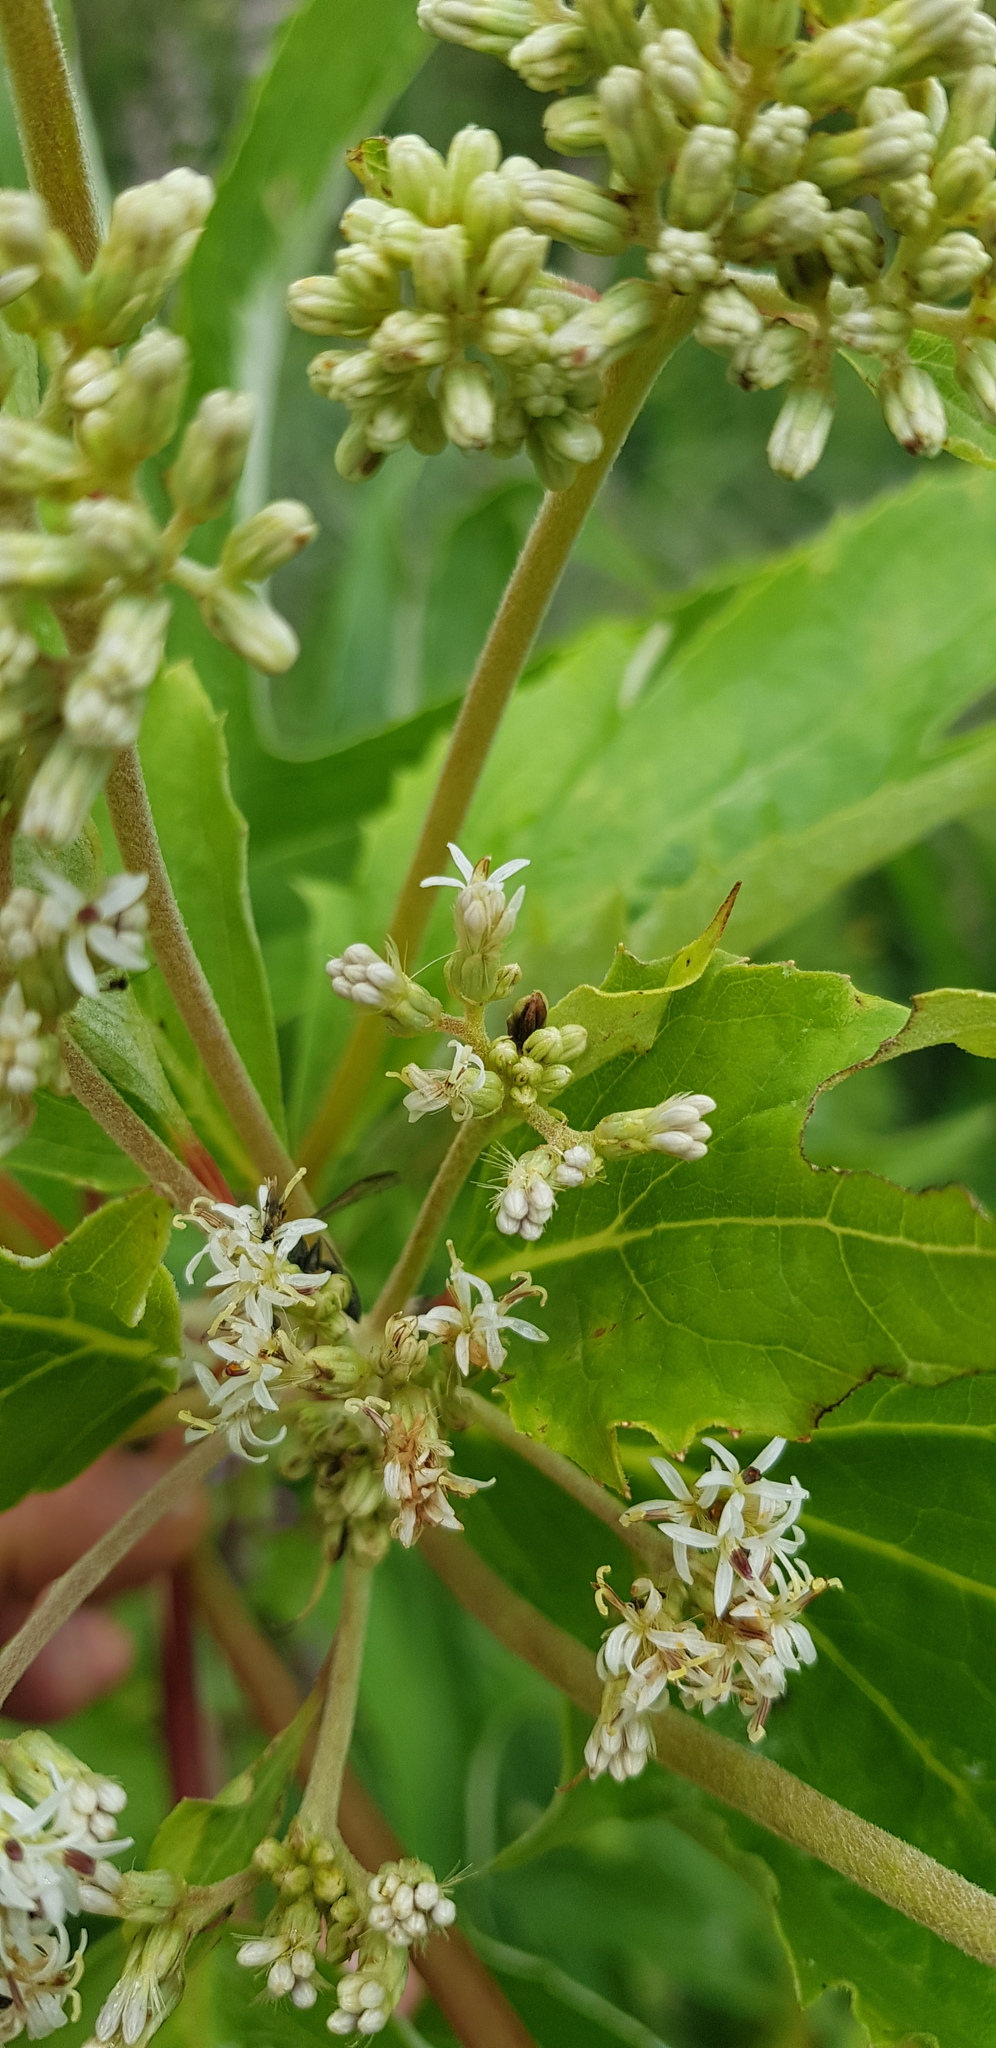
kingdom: Plantae
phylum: Tracheophyta
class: Magnoliopsida
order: Asterales
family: Asteraceae
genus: Digitacalia
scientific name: Digitacalia jatrophoides
